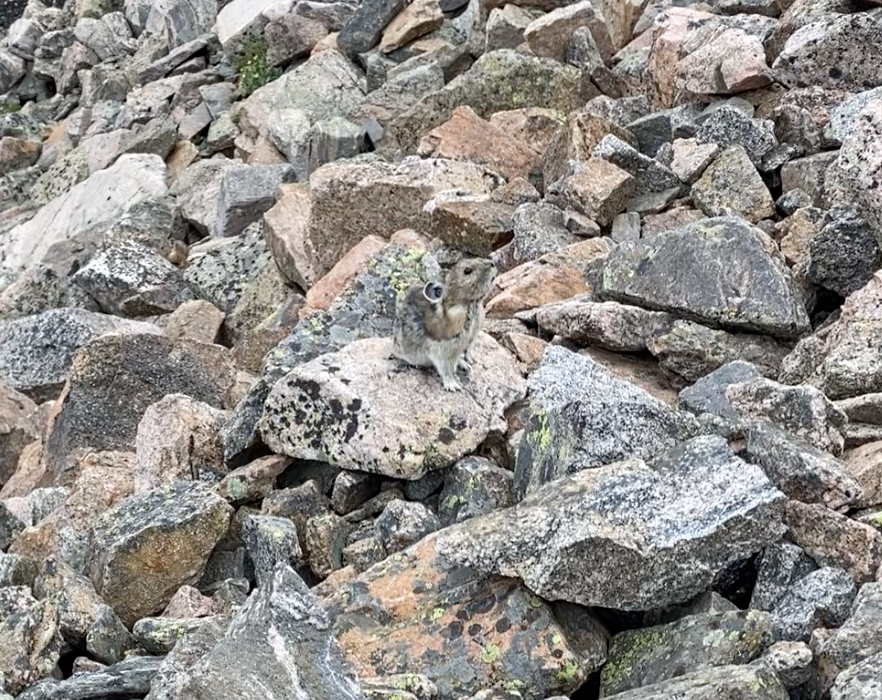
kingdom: Animalia
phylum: Chordata
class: Mammalia
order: Lagomorpha
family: Ochotonidae
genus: Ochotona
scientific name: Ochotona princeps
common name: American pika
